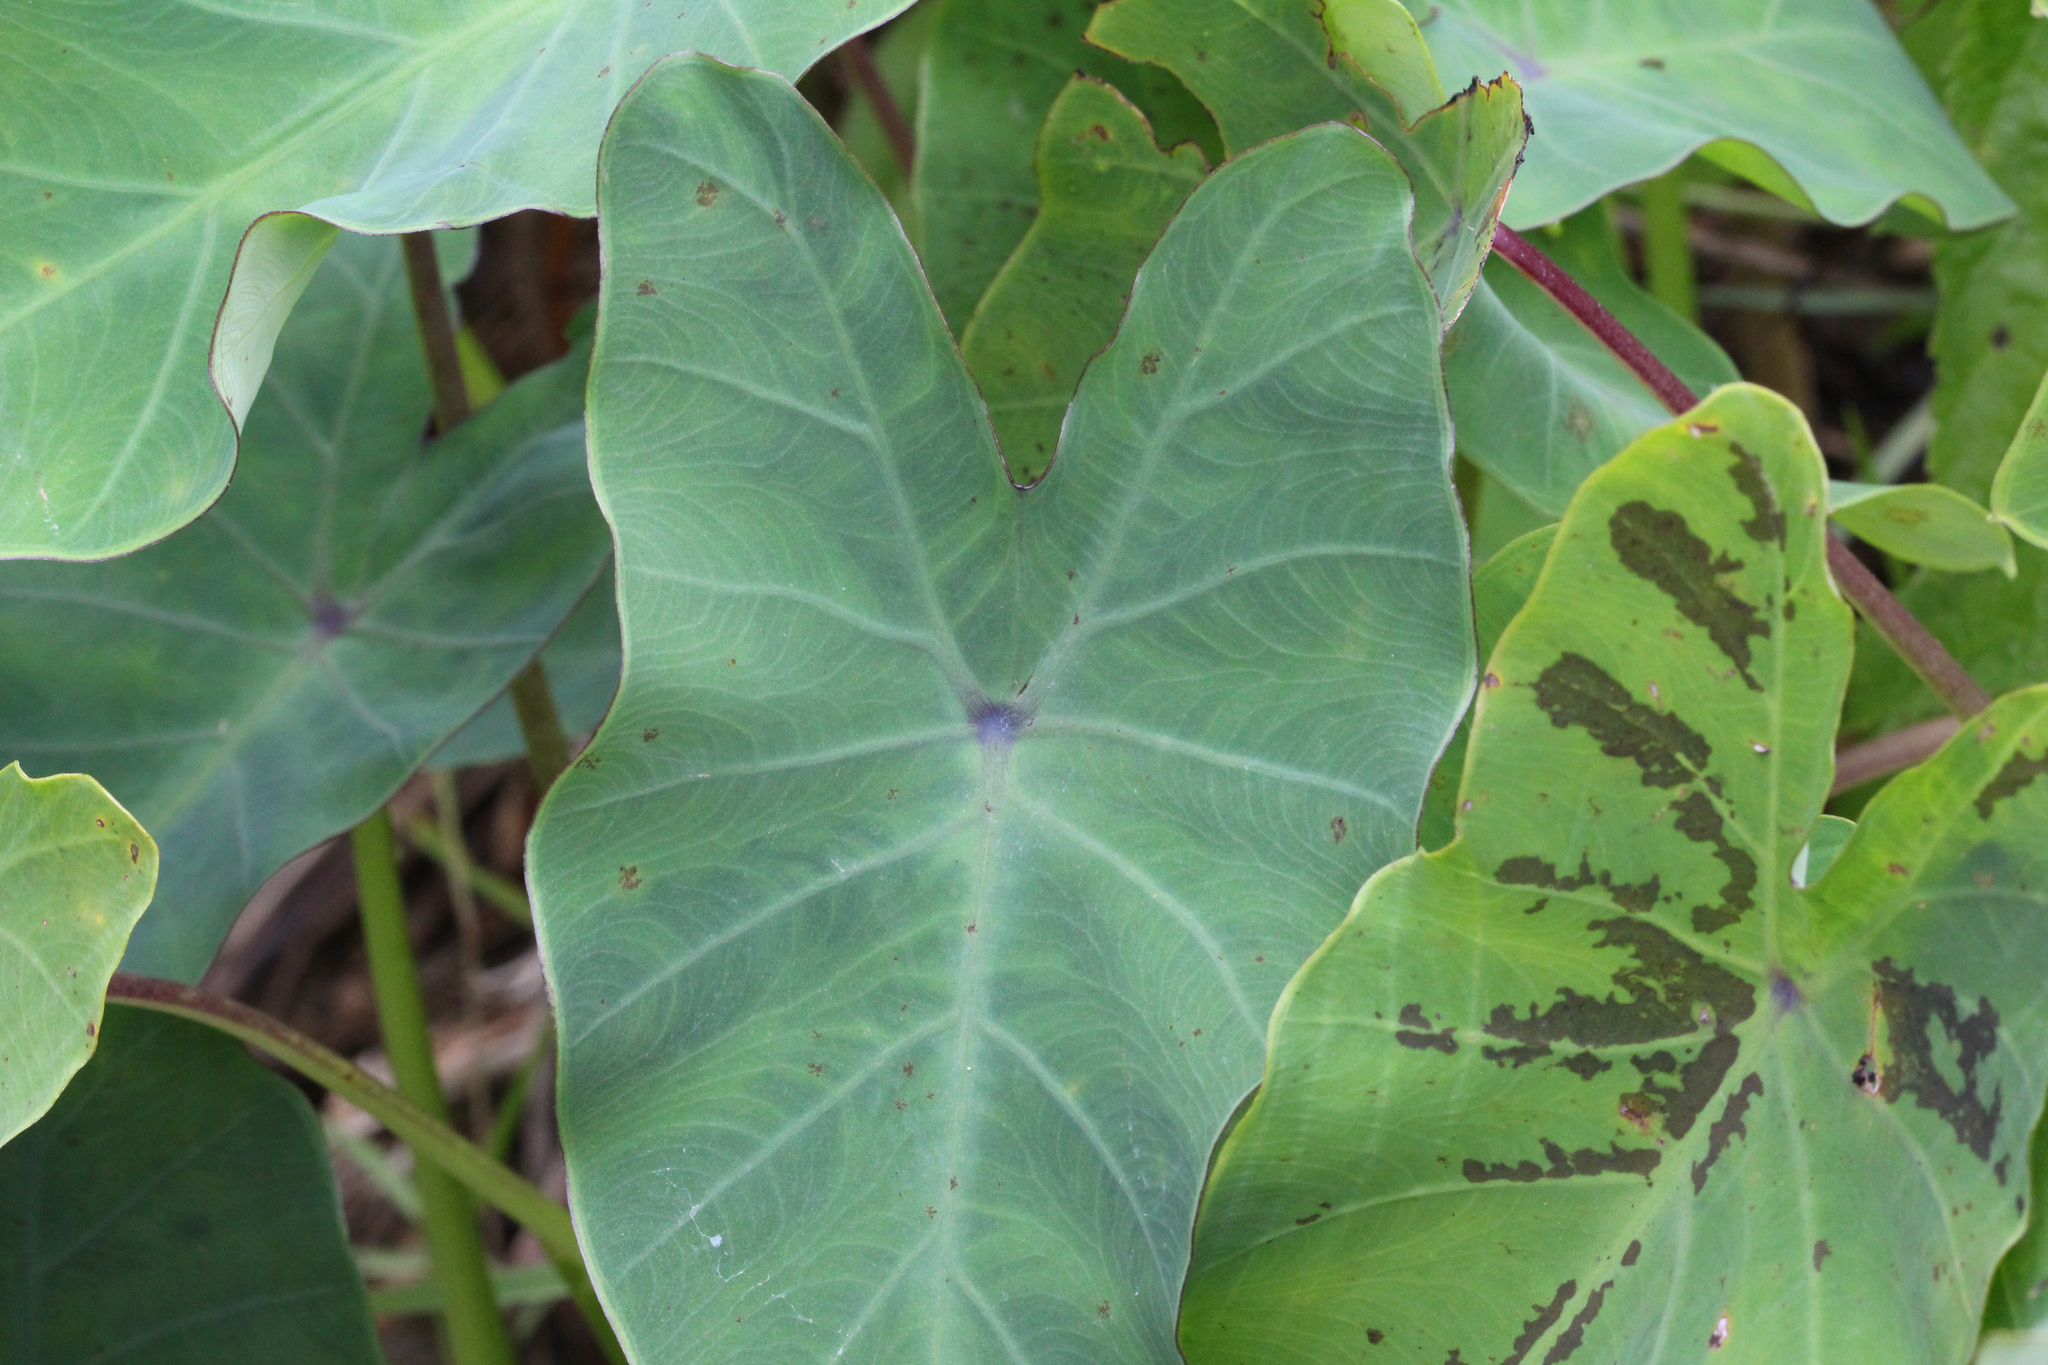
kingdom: Plantae
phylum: Tracheophyta
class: Liliopsida
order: Alismatales
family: Araceae
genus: Colocasia
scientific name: Colocasia esculenta
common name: Taro
